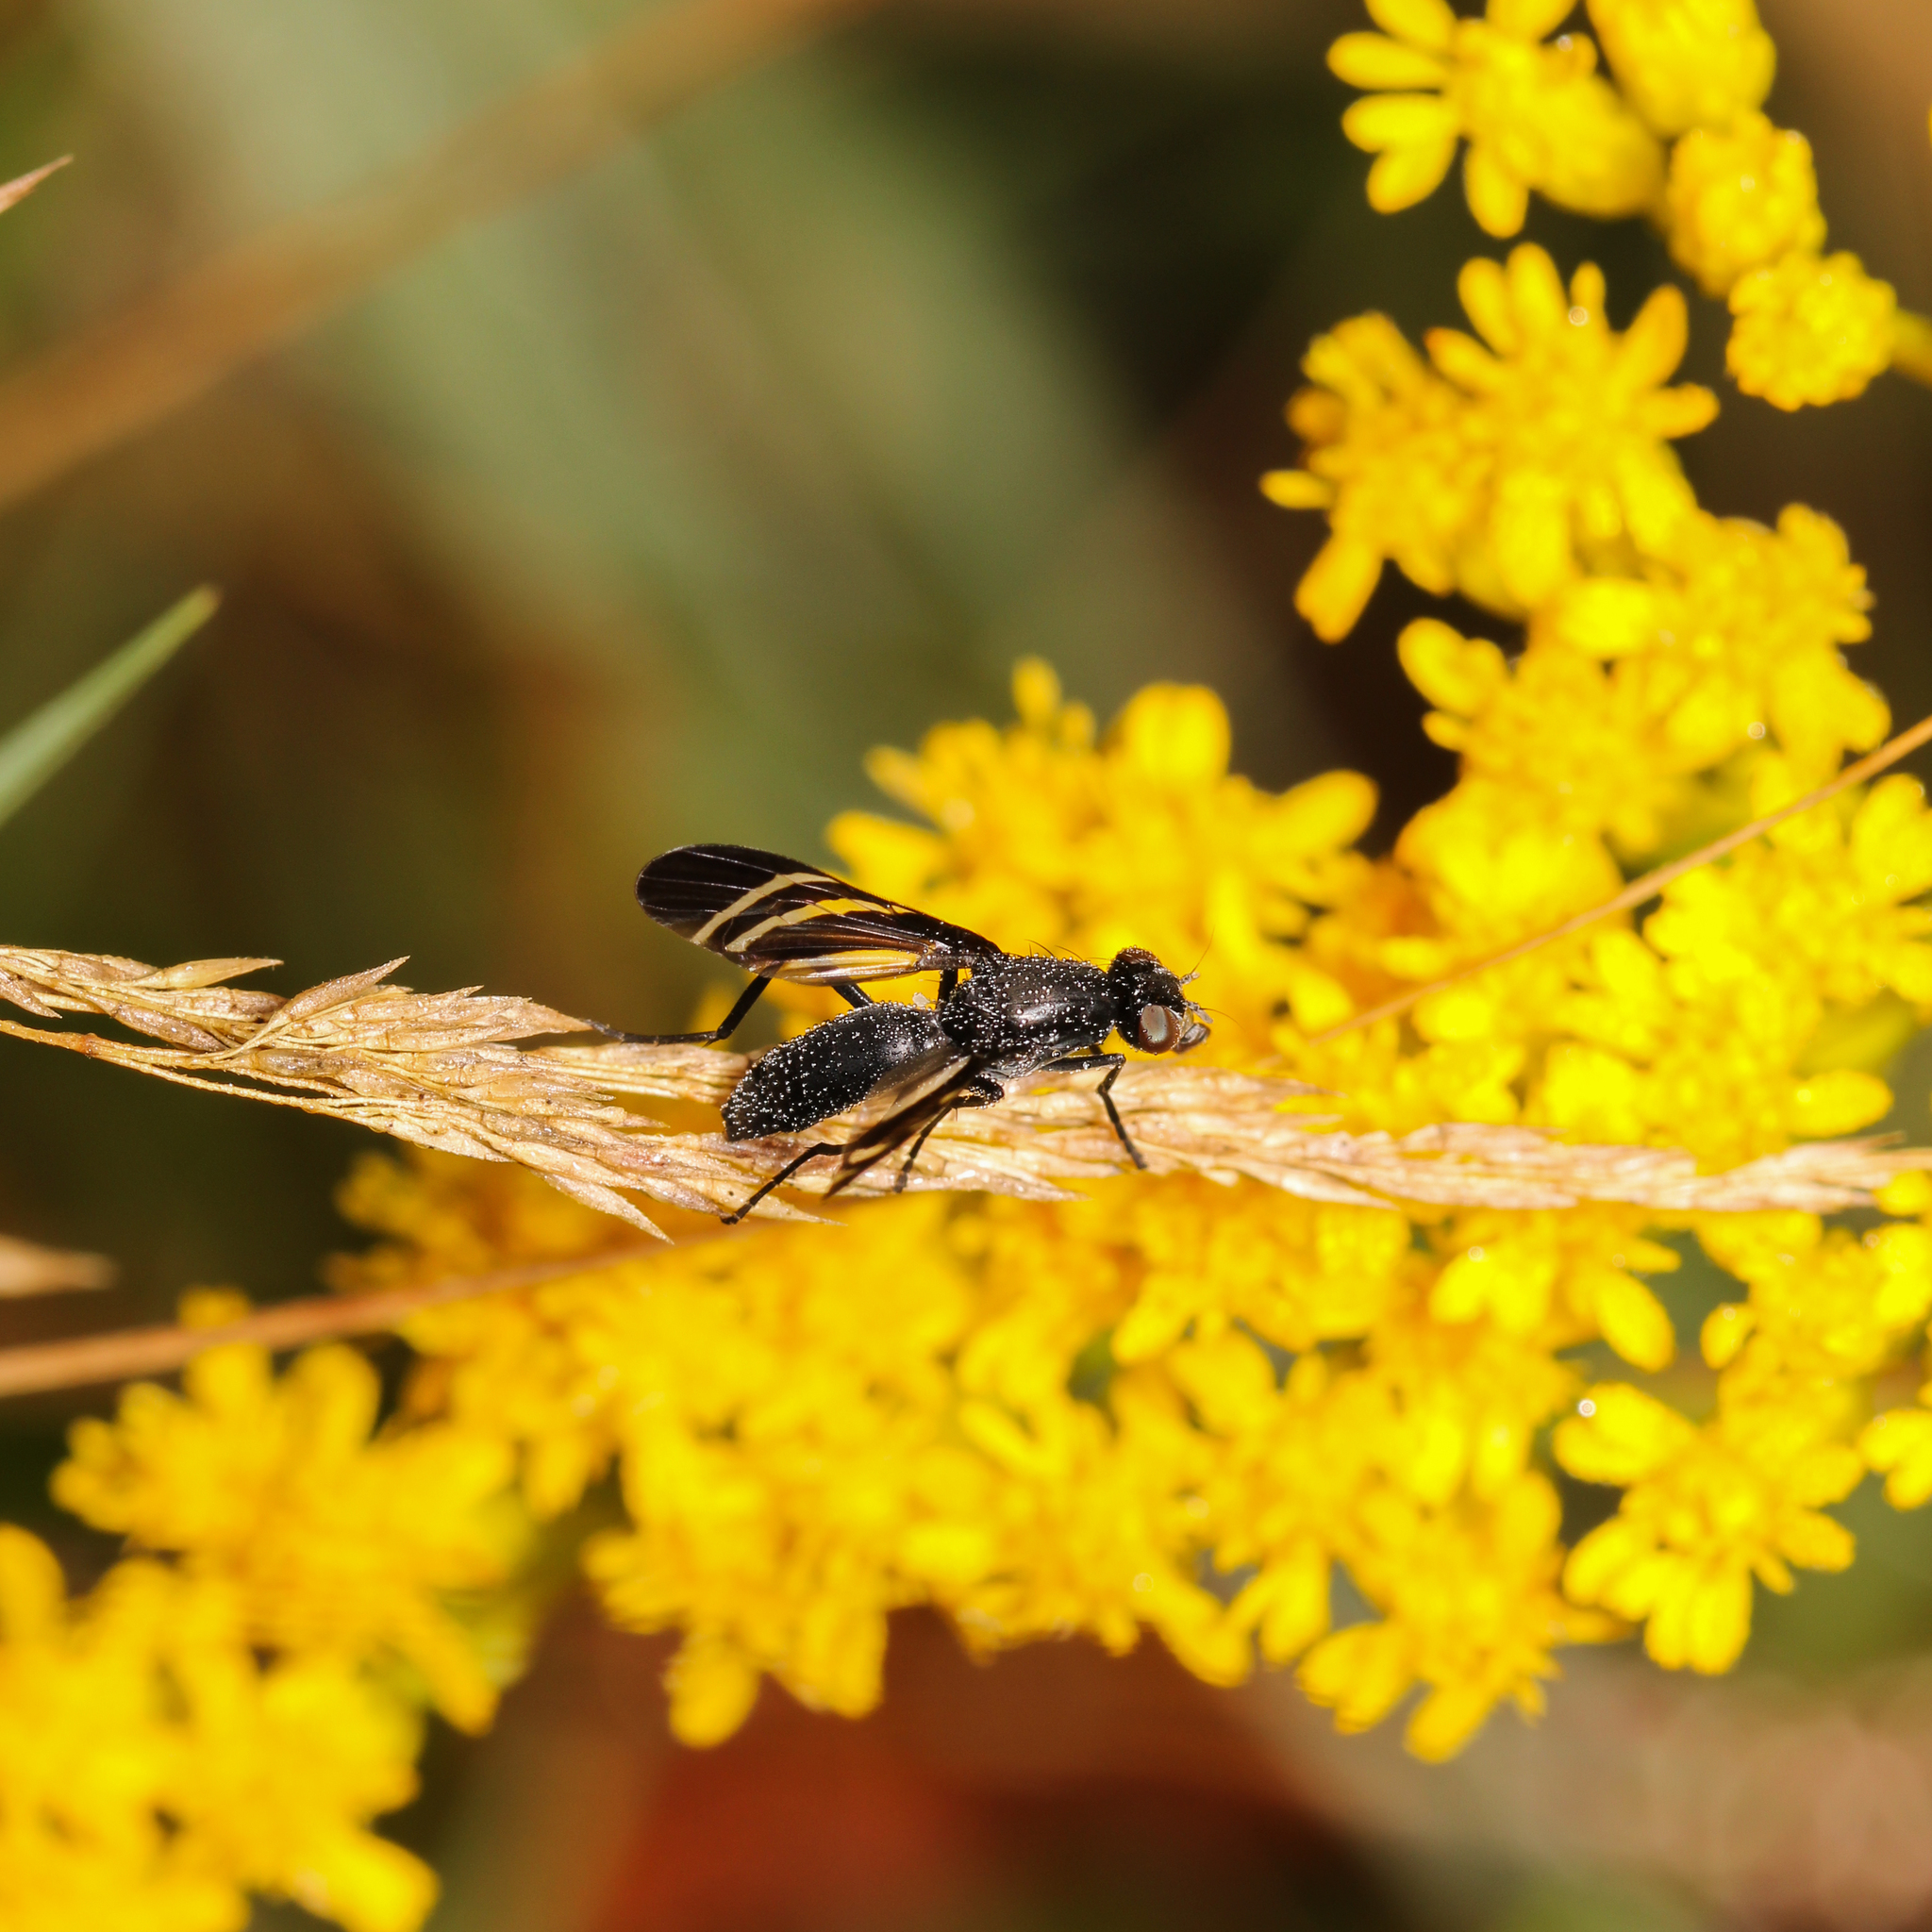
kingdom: Animalia
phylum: Arthropoda
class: Insecta
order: Diptera
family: Ulidiidae
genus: Tritoxa
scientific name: Tritoxa flexa
